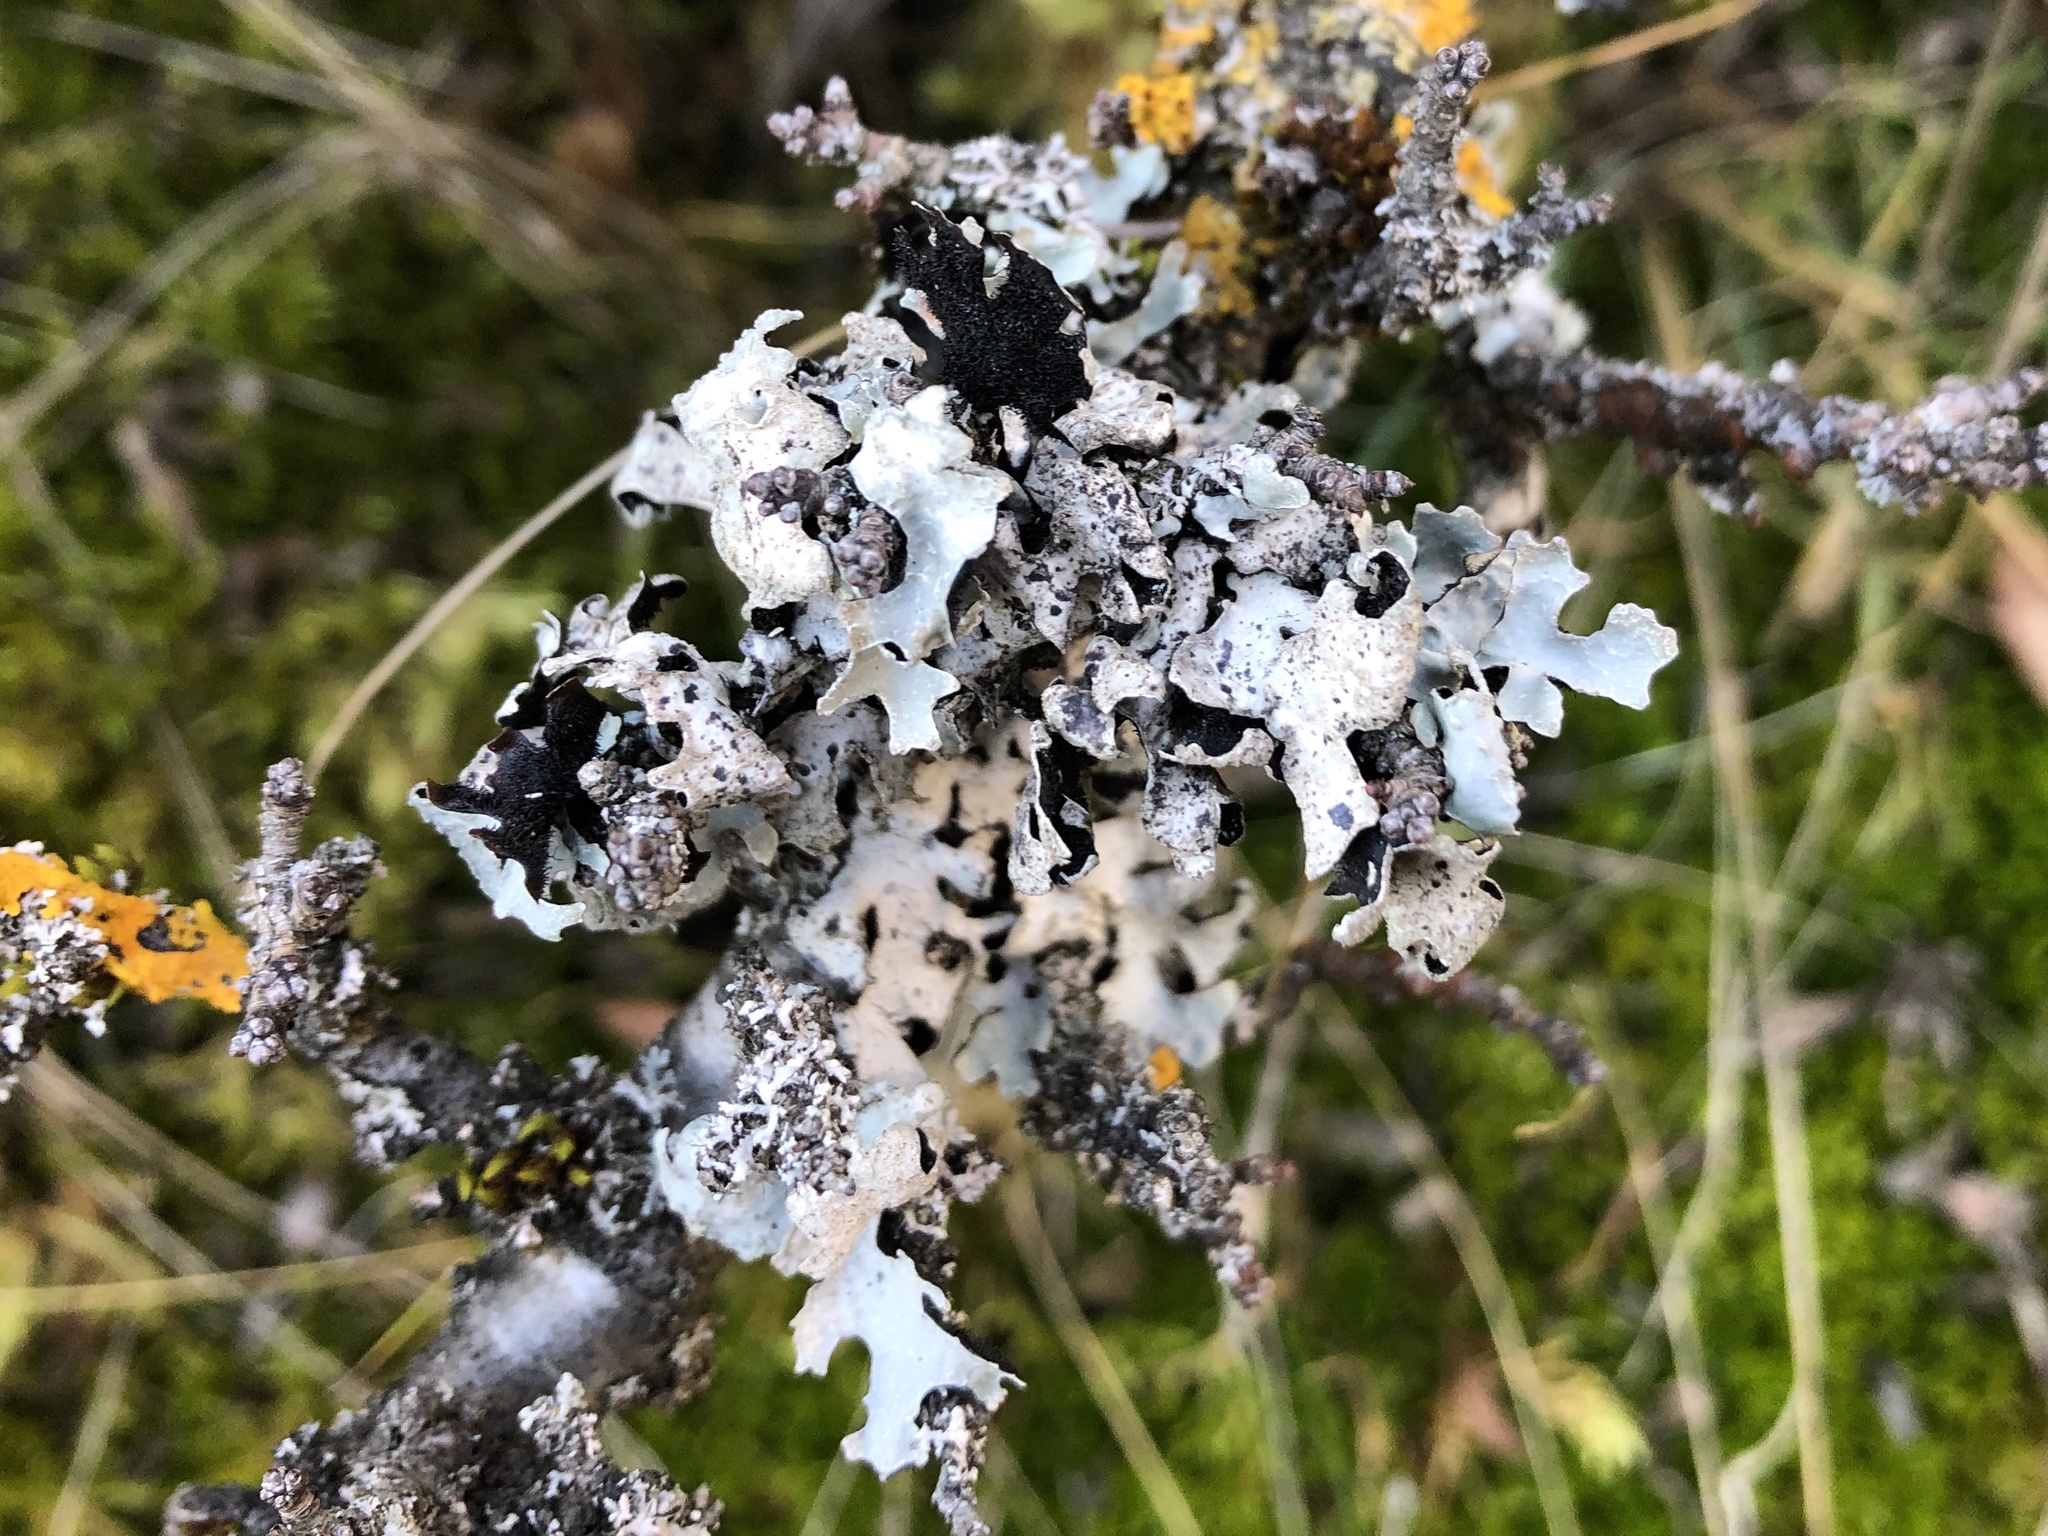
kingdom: Fungi
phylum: Ascomycota
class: Lecanoromycetes
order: Lecanorales
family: Parmeliaceae
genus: Parmelia
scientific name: Parmelia sulcata
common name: Netted shield lichen
